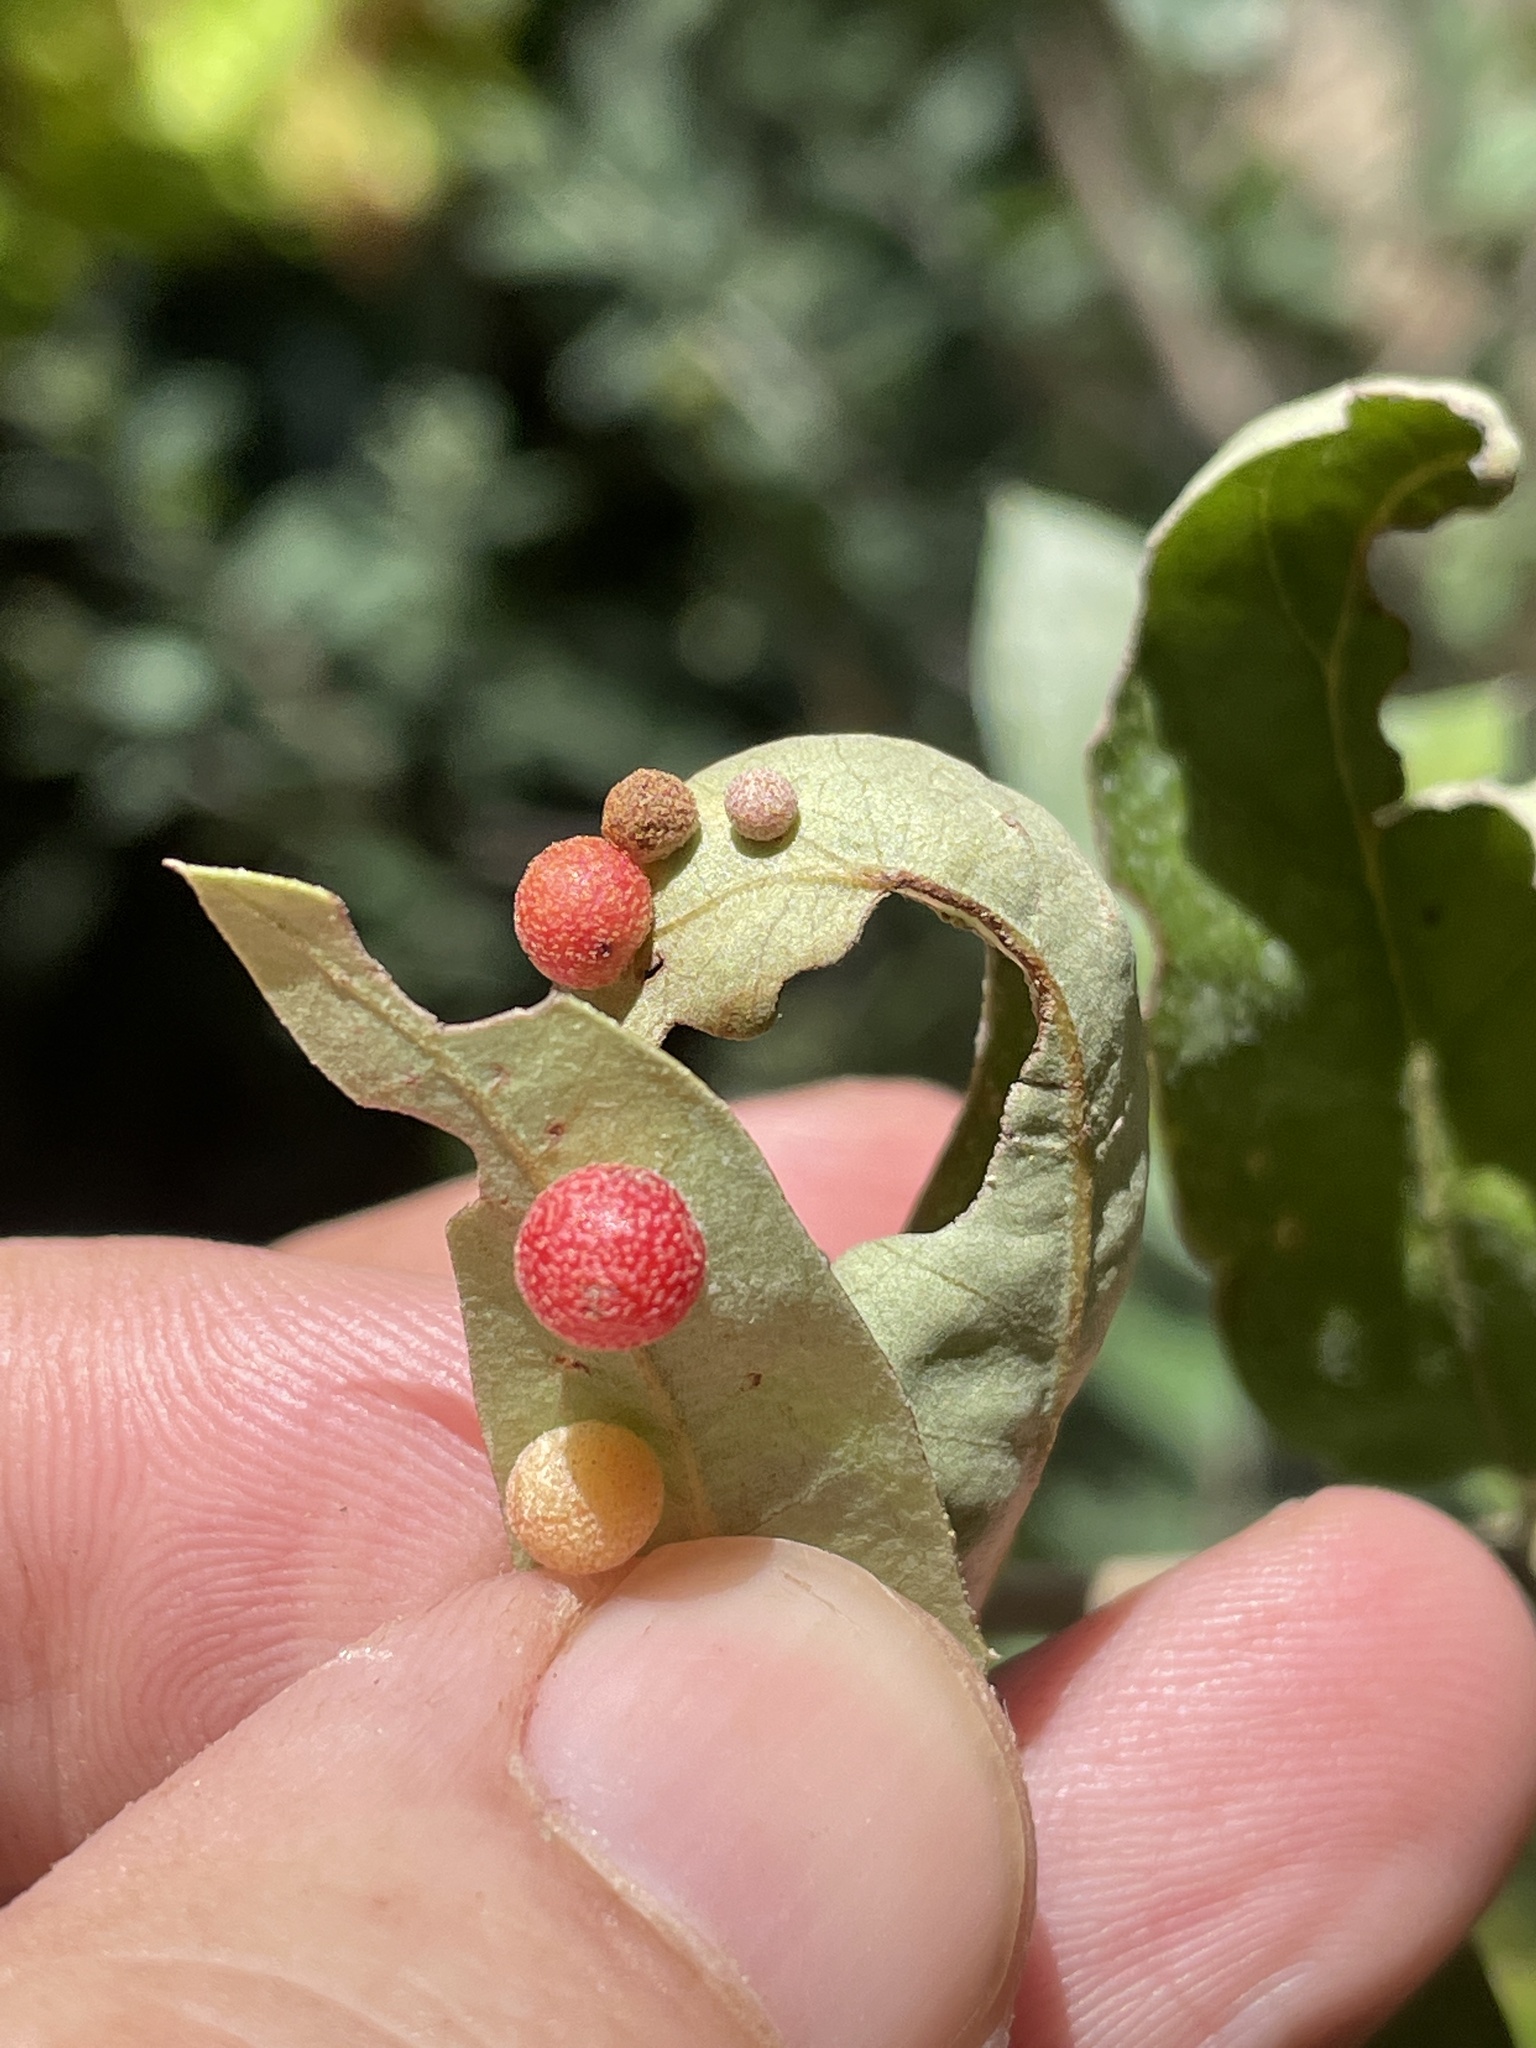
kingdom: Animalia
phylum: Arthropoda
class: Insecta
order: Hymenoptera
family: Cynipidae
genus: Belonocnema
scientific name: Belonocnema kinseyi
